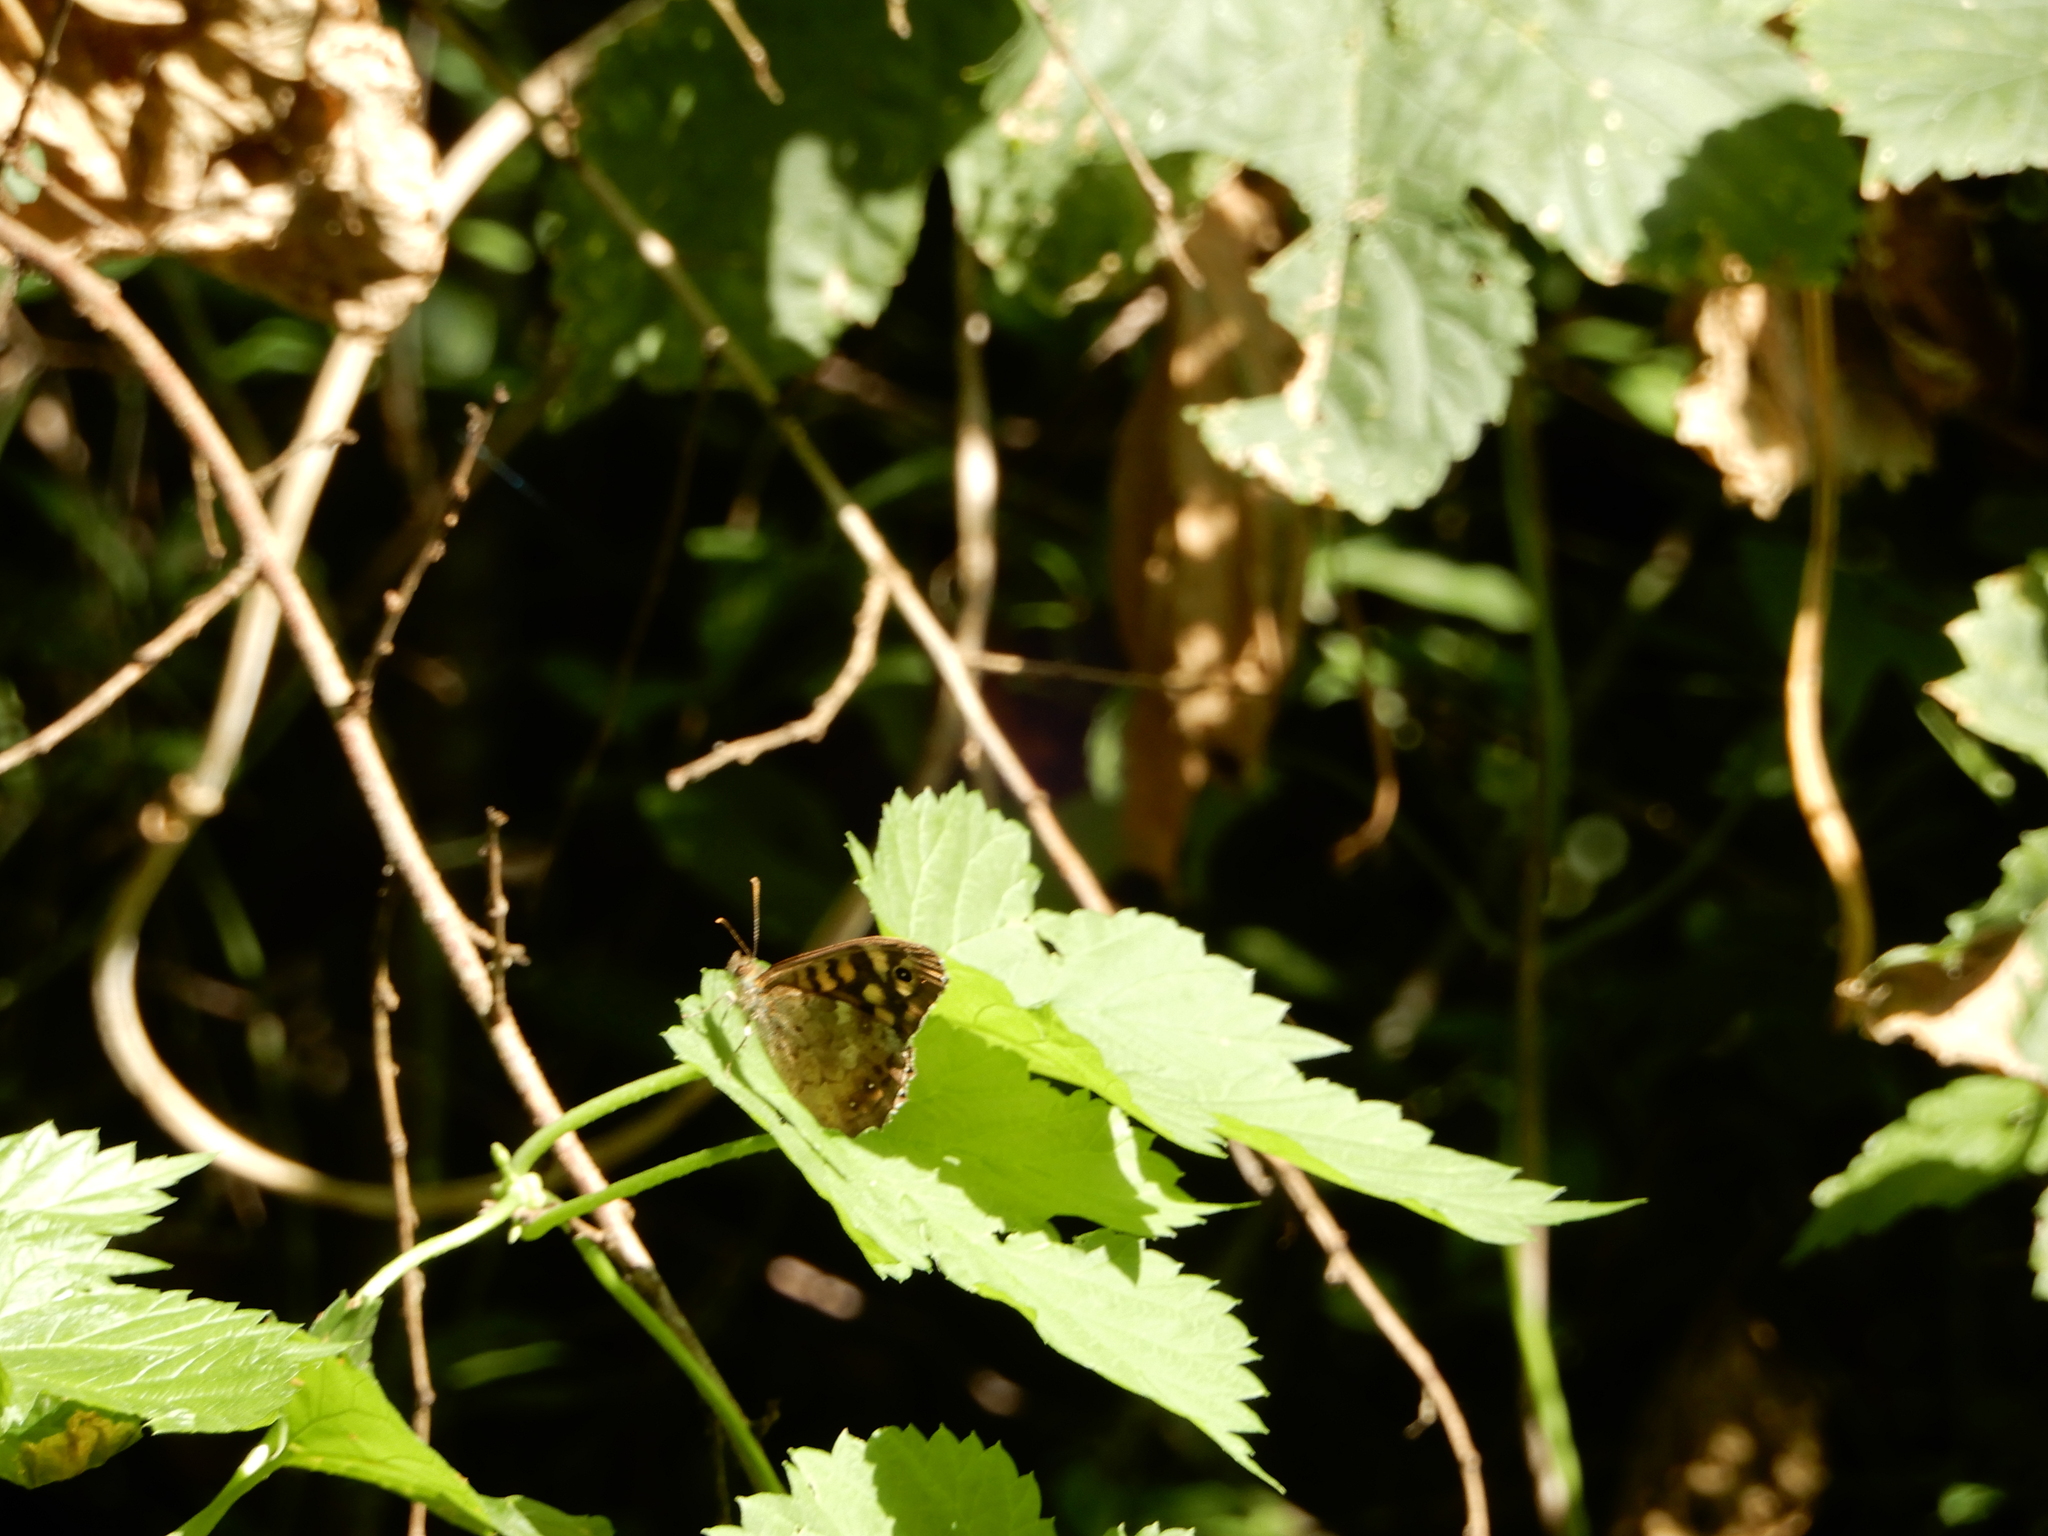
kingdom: Animalia
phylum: Arthropoda
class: Insecta
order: Lepidoptera
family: Nymphalidae
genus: Pararge
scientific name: Pararge aegeria
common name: Speckled wood
